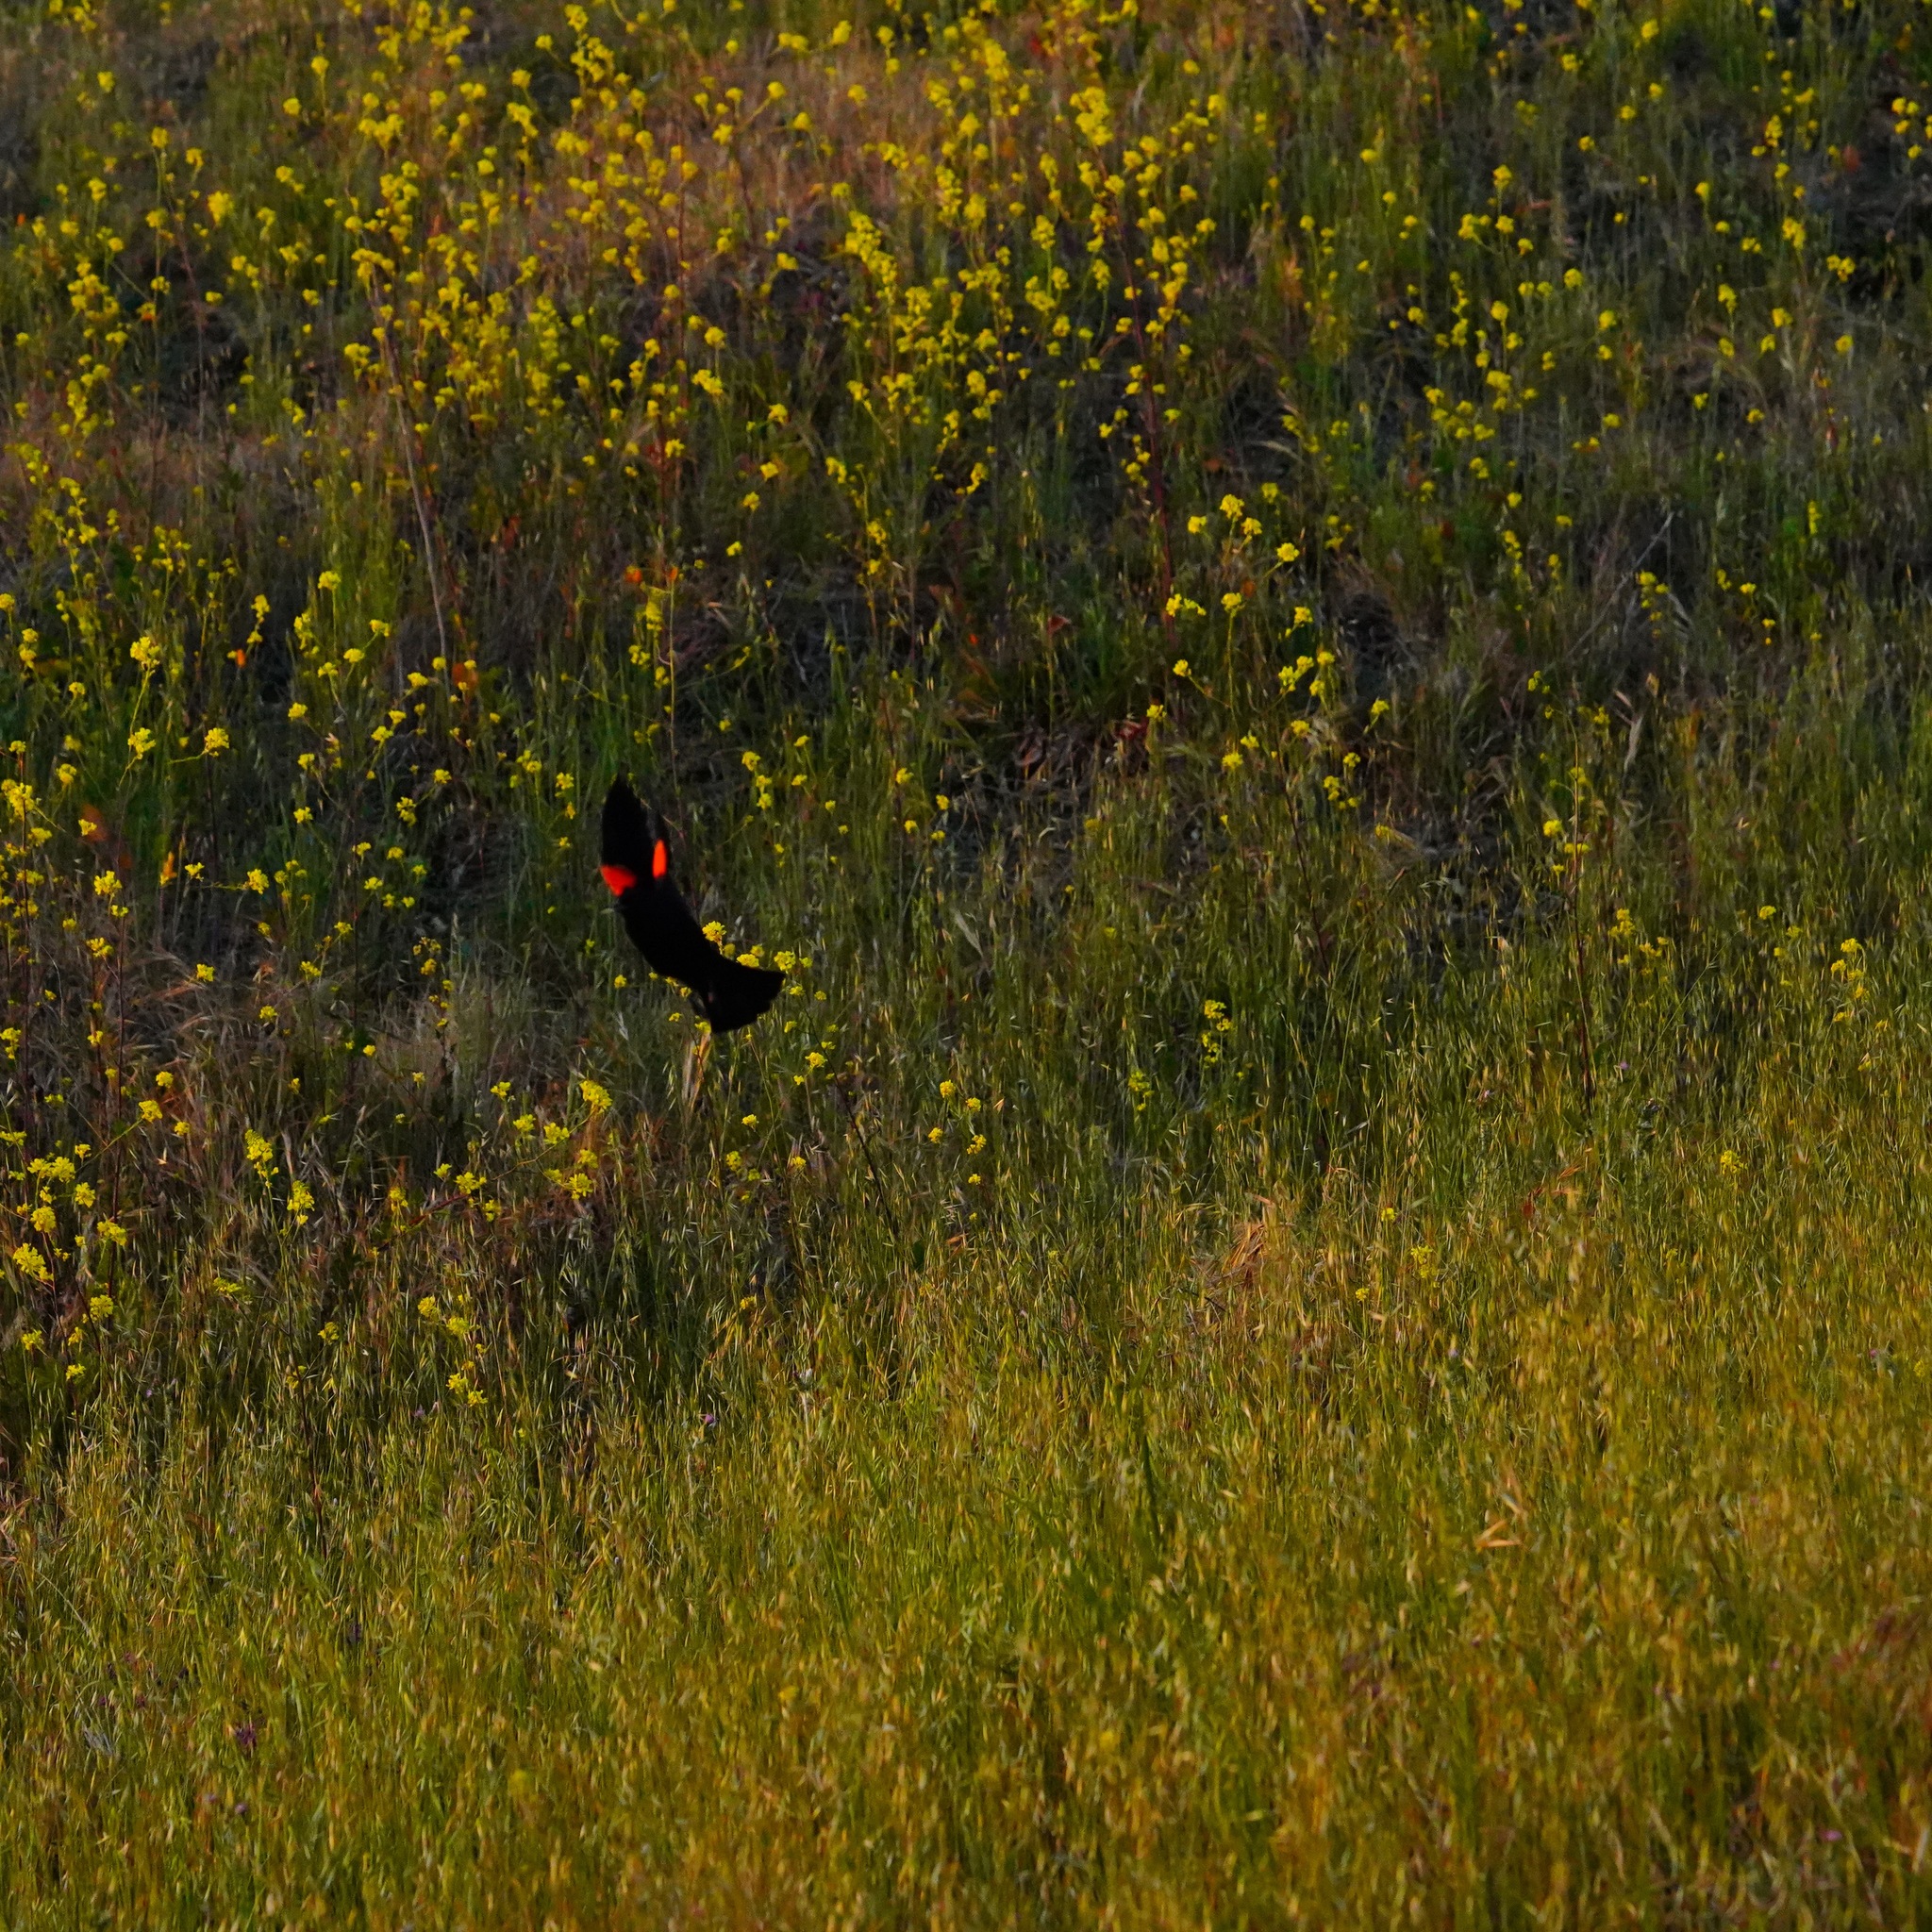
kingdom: Animalia
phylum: Chordata
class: Aves
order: Passeriformes
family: Icteridae
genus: Agelaius
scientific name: Agelaius phoeniceus
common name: Red-winged blackbird
